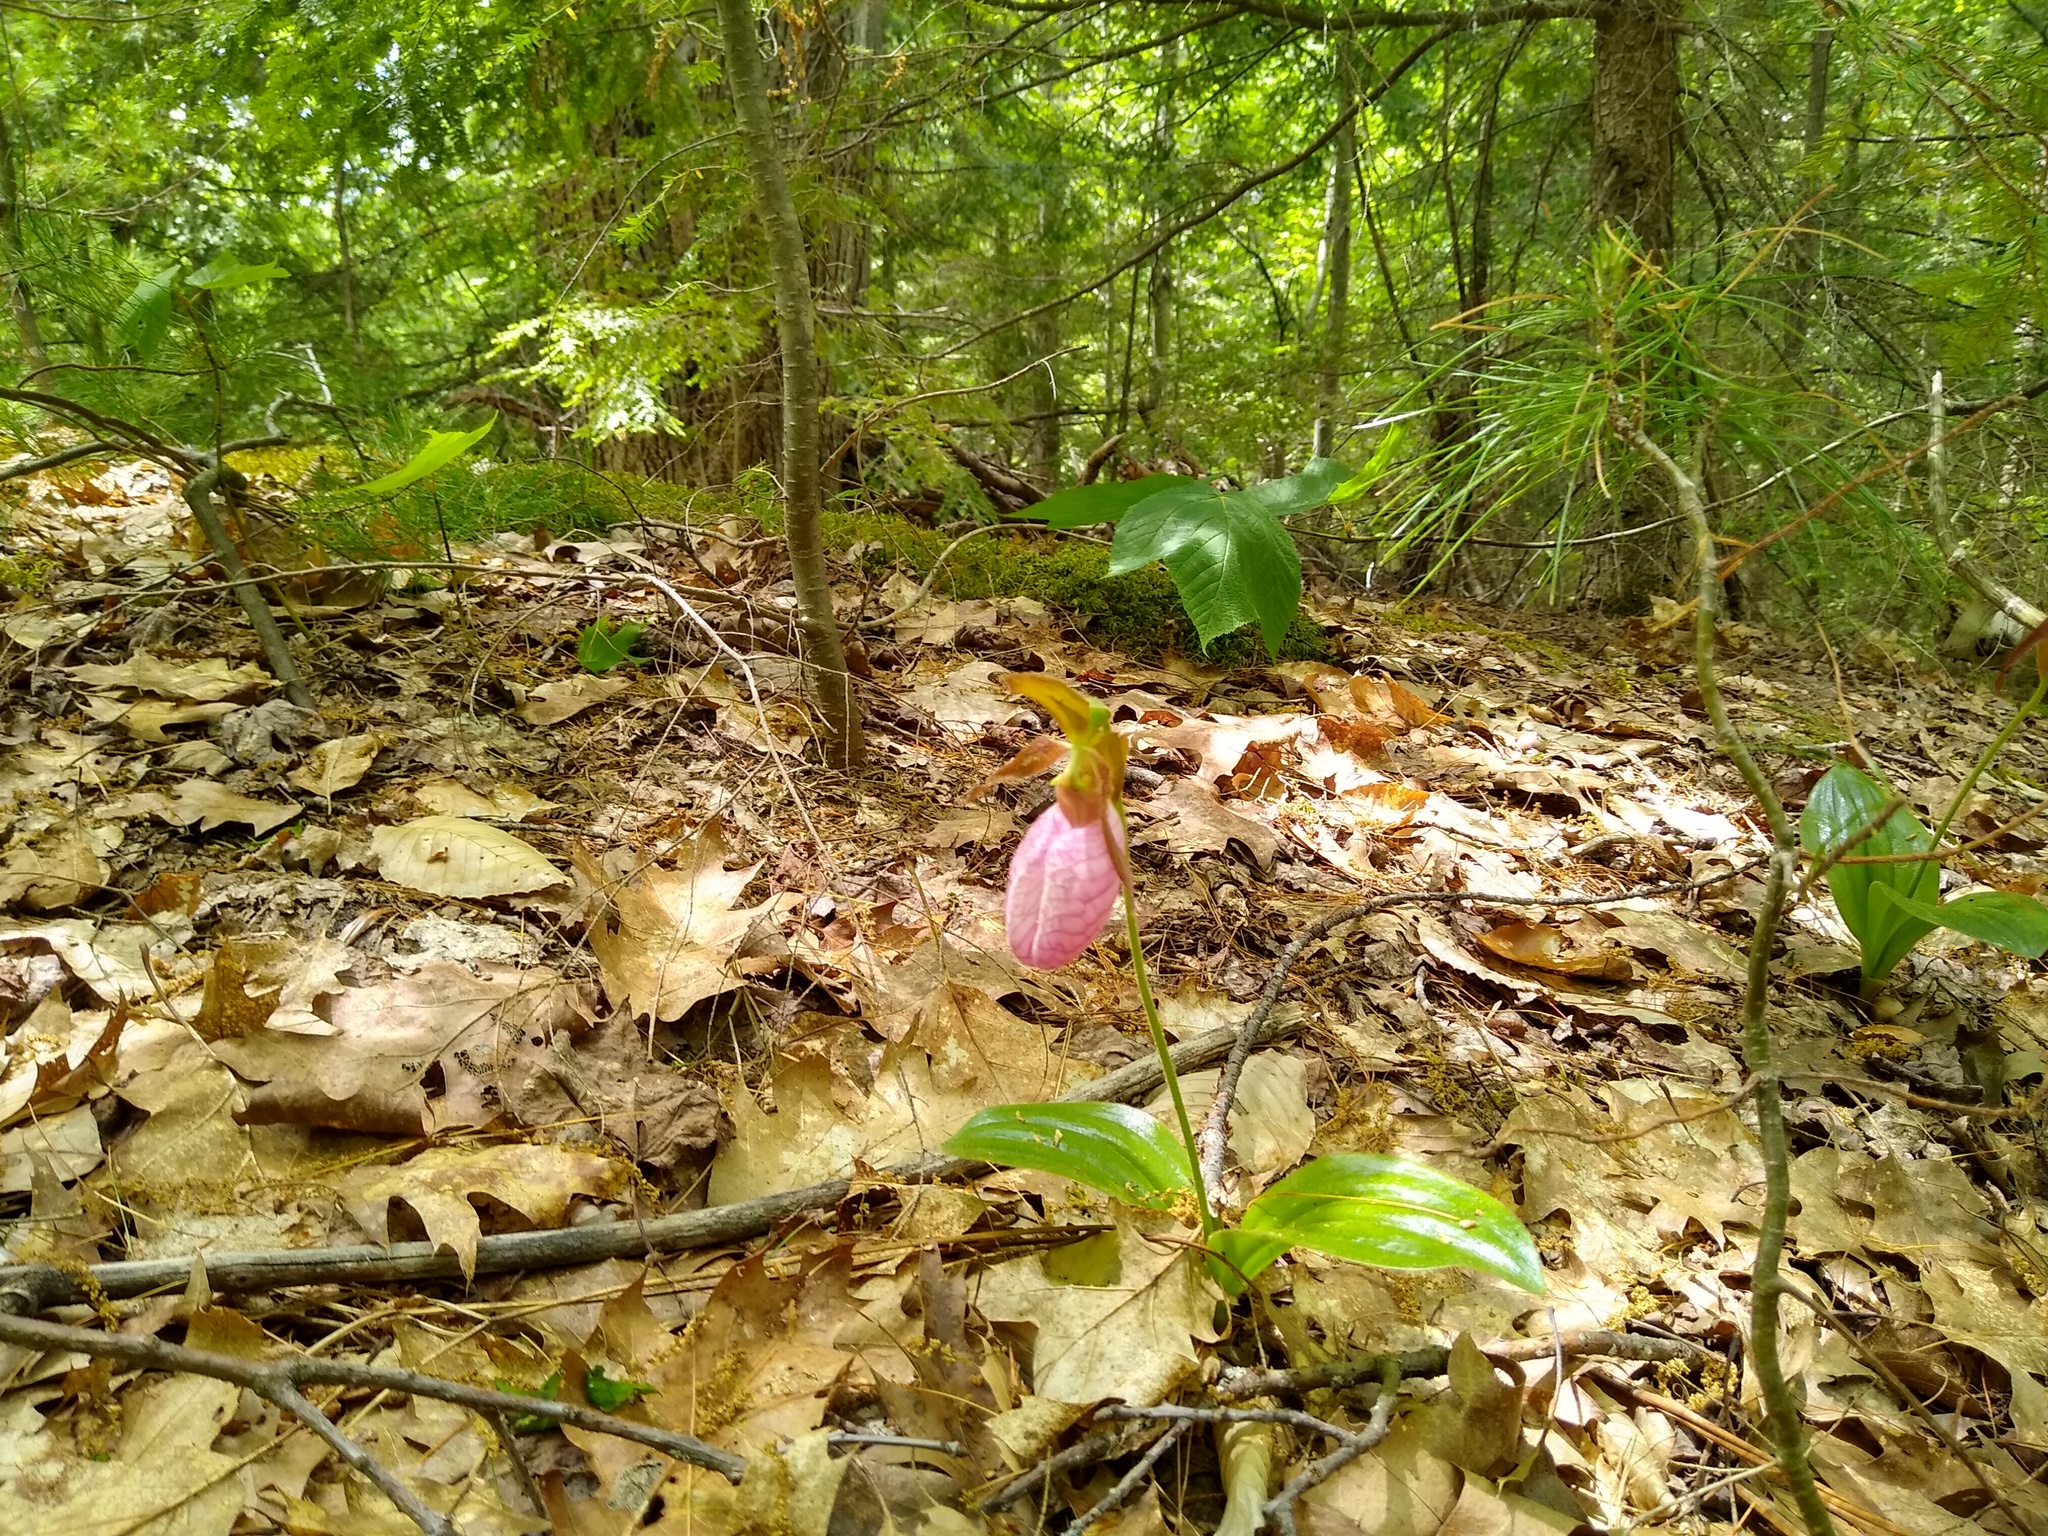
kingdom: Plantae
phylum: Tracheophyta
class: Liliopsida
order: Asparagales
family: Orchidaceae
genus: Cypripedium
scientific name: Cypripedium acaule
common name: Pink lady's-slipper
